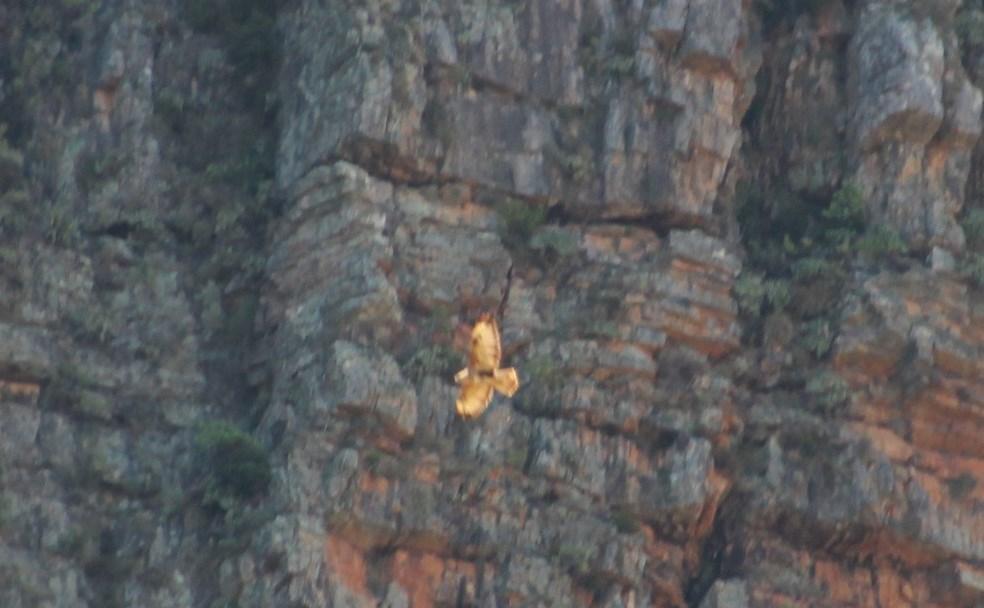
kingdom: Animalia
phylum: Chordata
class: Aves
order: Accipitriformes
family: Accipitridae
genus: Buteo
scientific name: Buteo buteo
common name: Common buzzard
